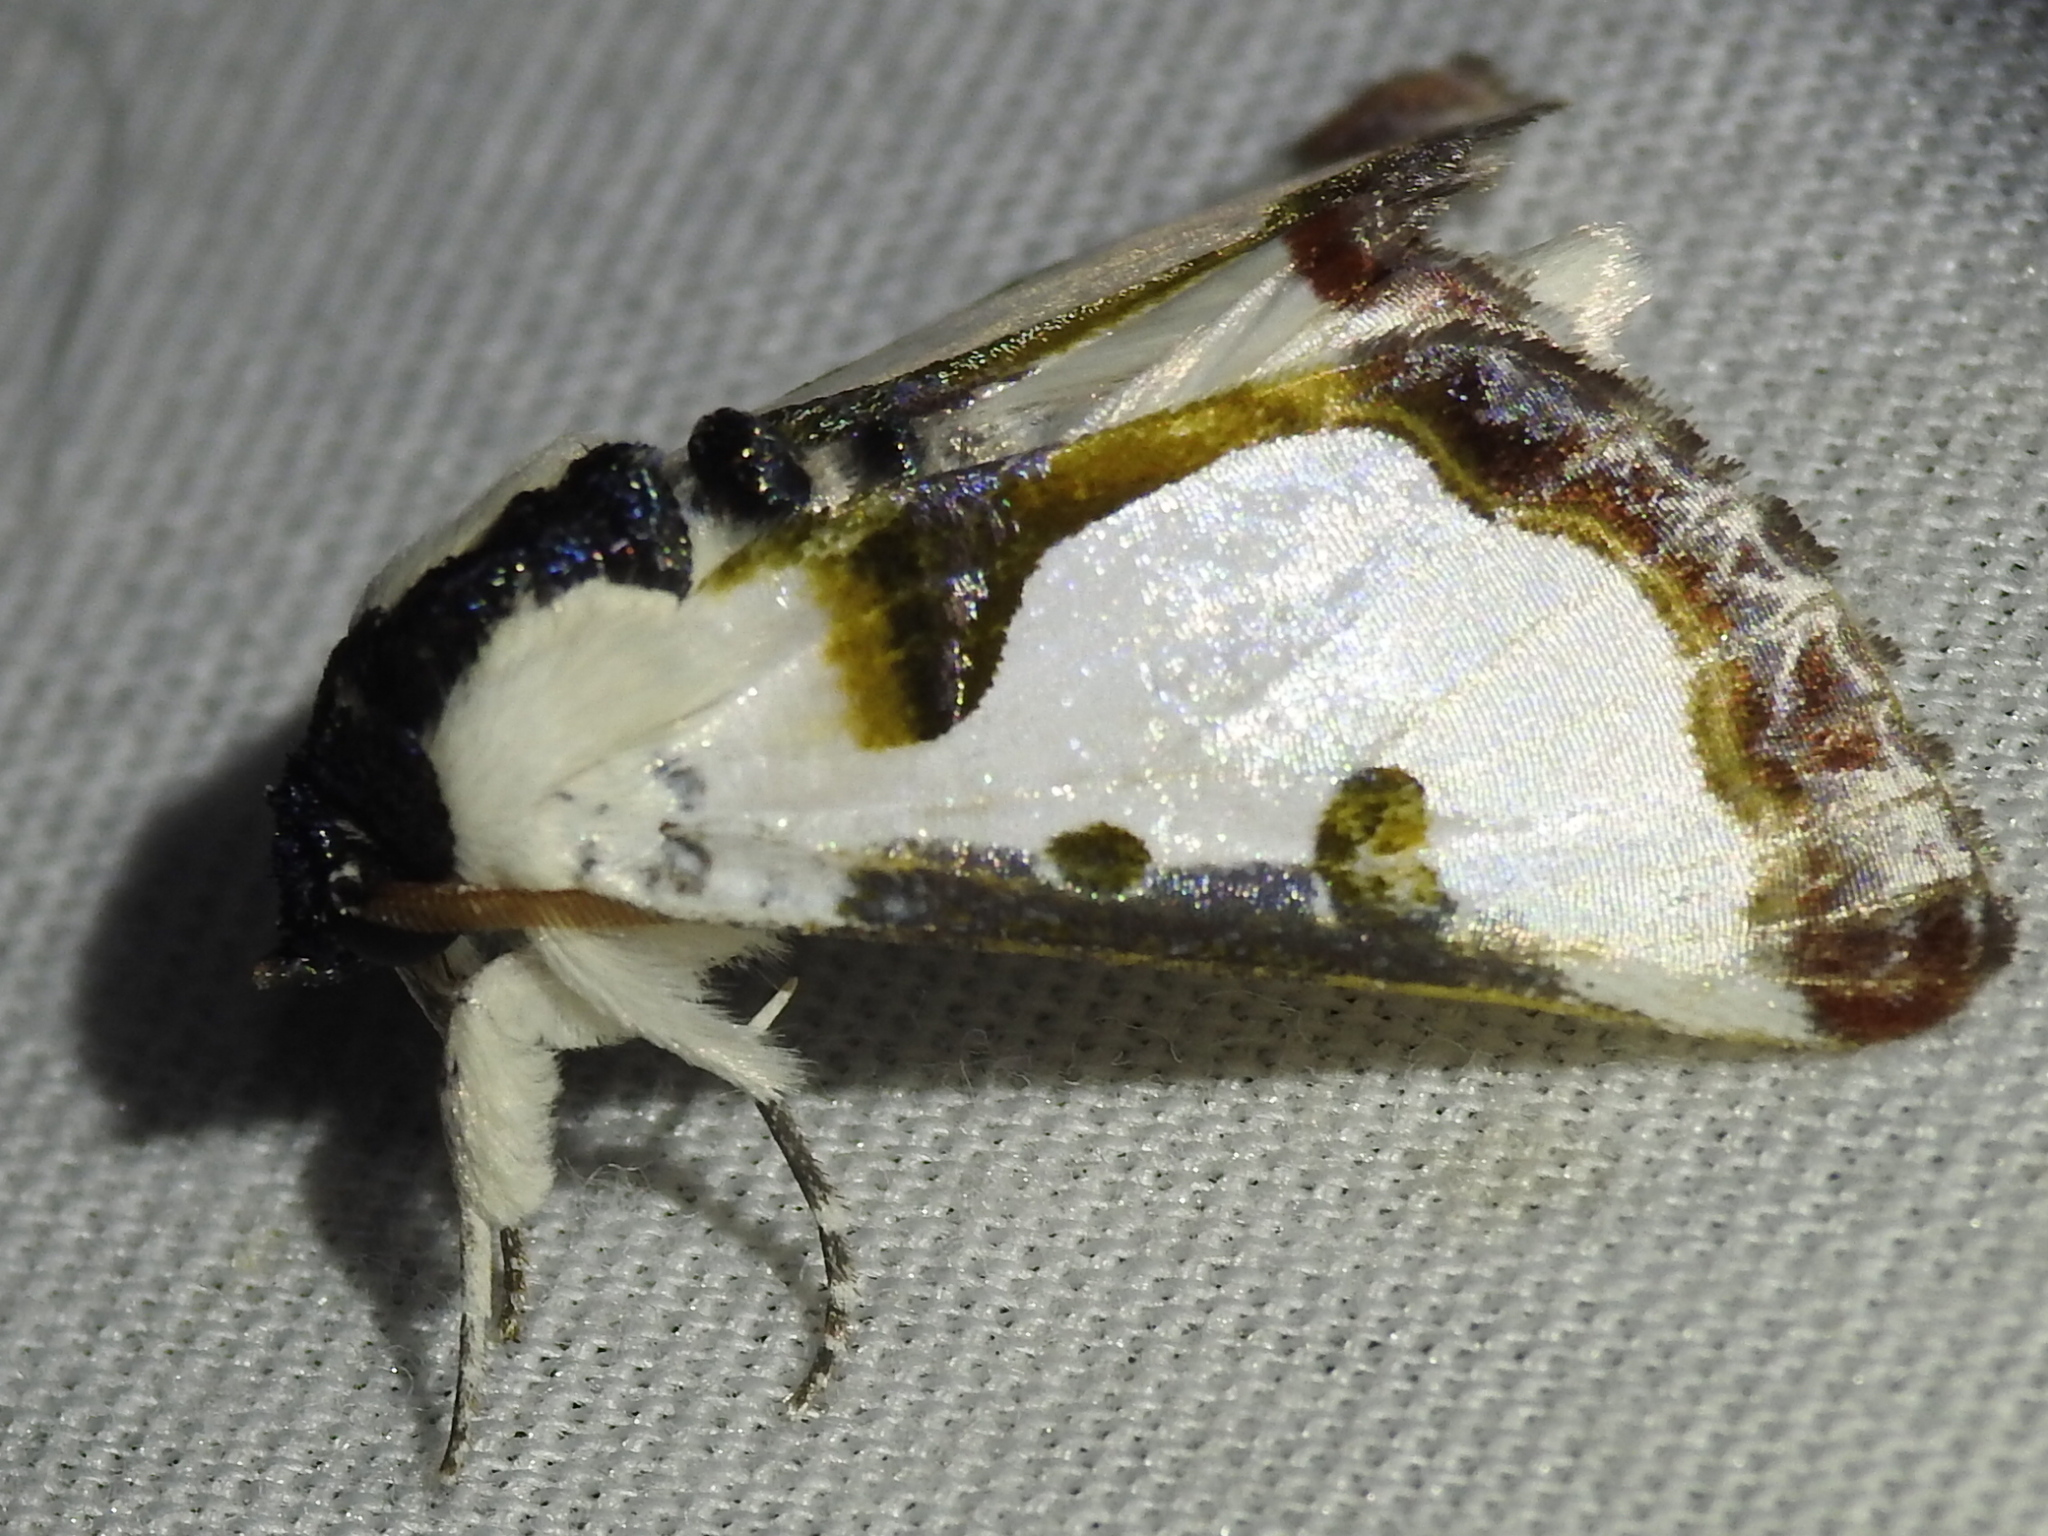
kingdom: Animalia
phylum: Arthropoda
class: Insecta
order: Lepidoptera
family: Noctuidae
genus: Xerociris
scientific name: Xerociris wilsonii
